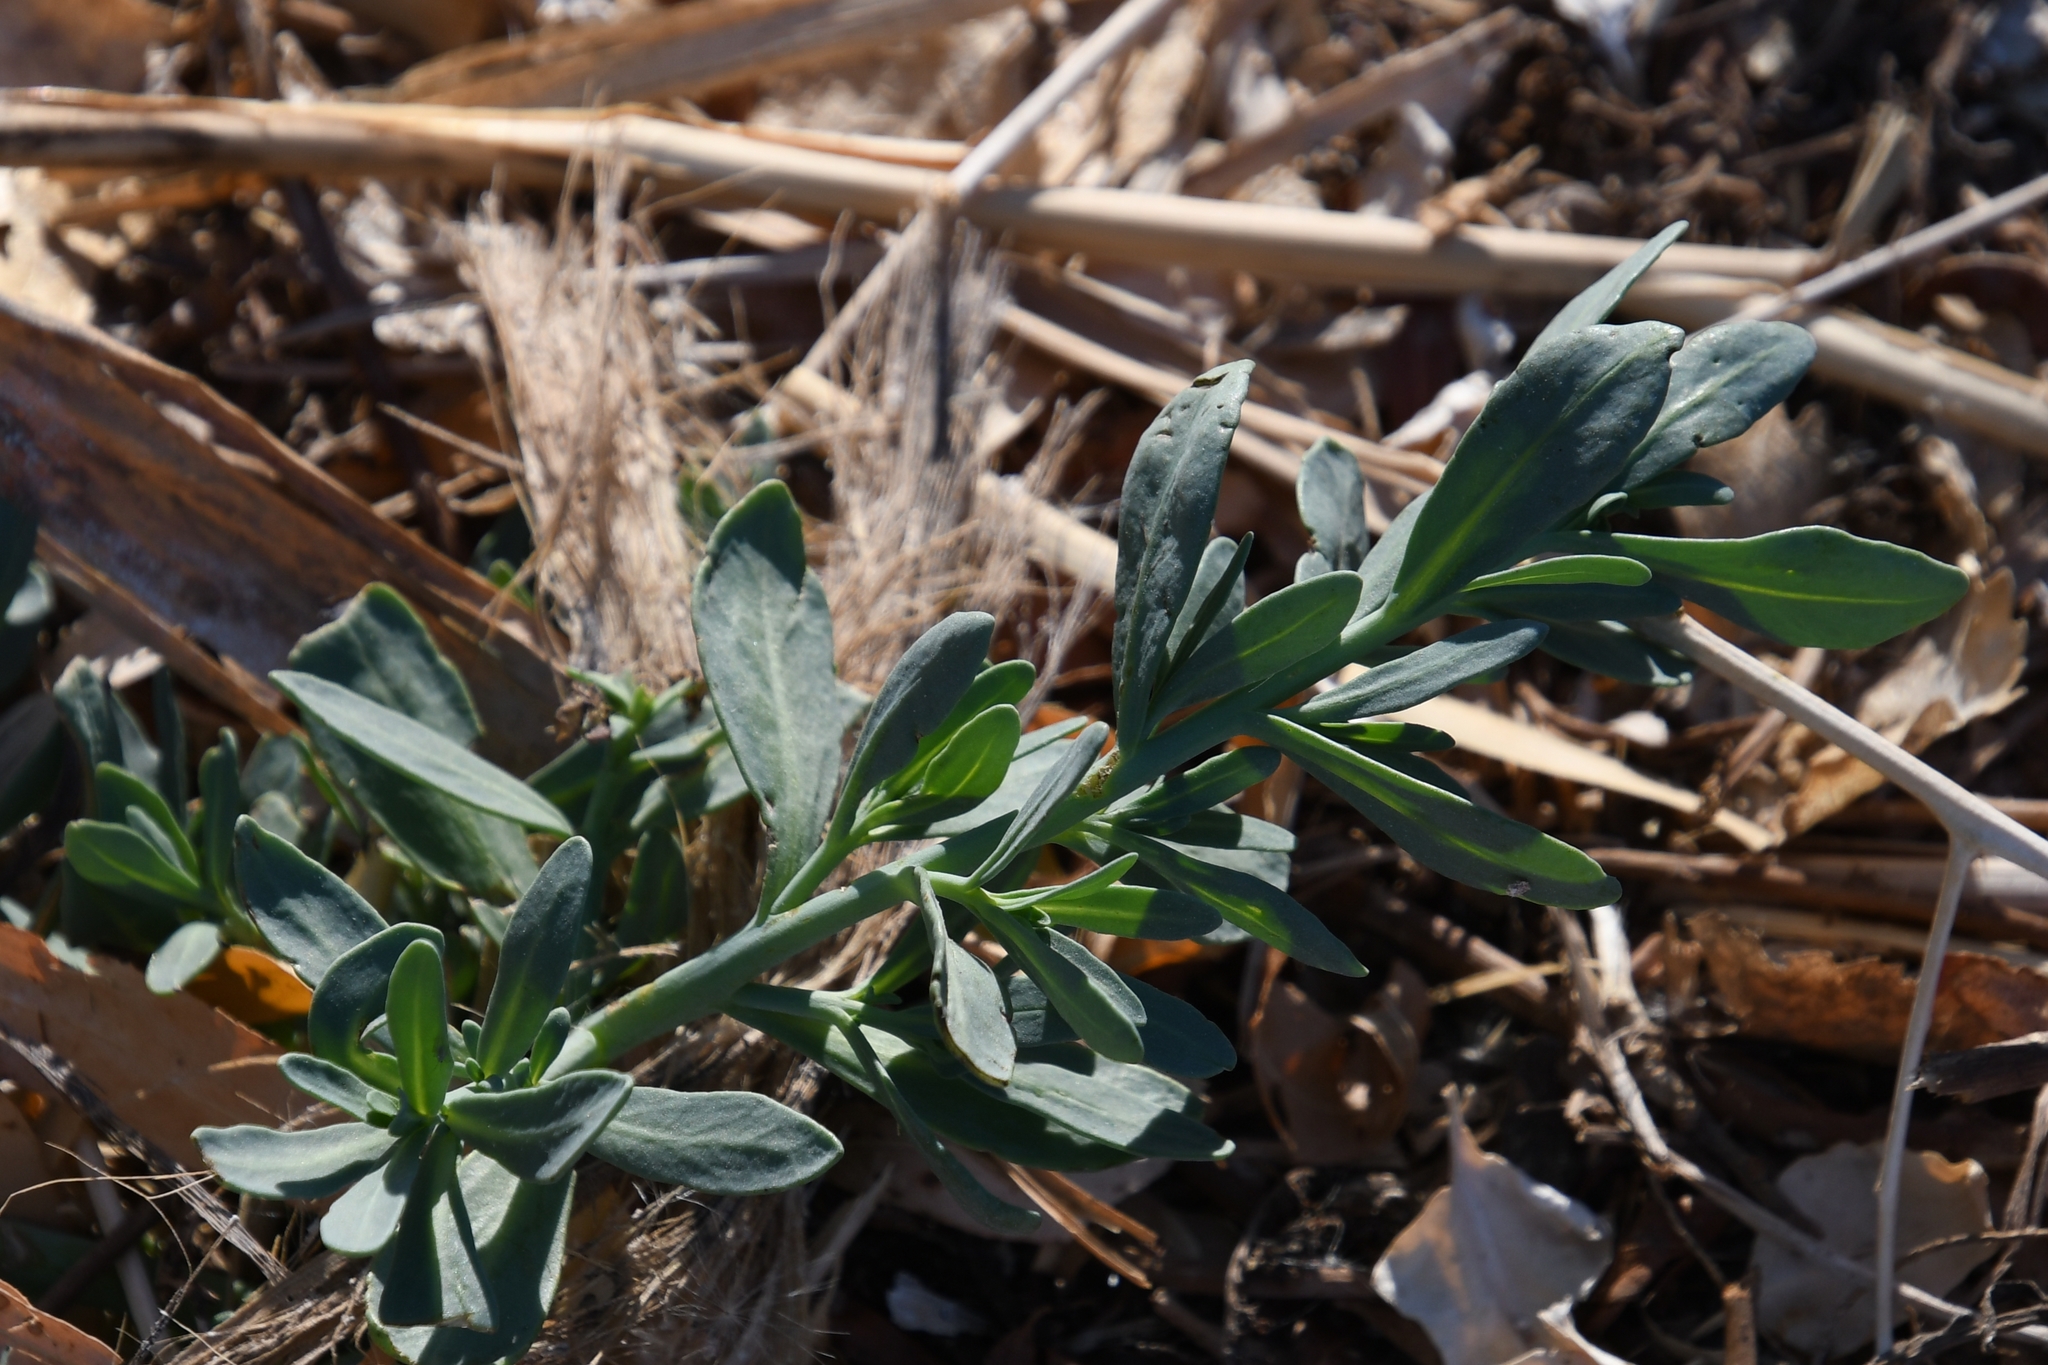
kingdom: Plantae
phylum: Tracheophyta
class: Magnoliopsida
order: Boraginales
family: Heliotropiaceae
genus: Heliotropium
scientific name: Heliotropium curassavicum
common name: Seaside heliotrope
